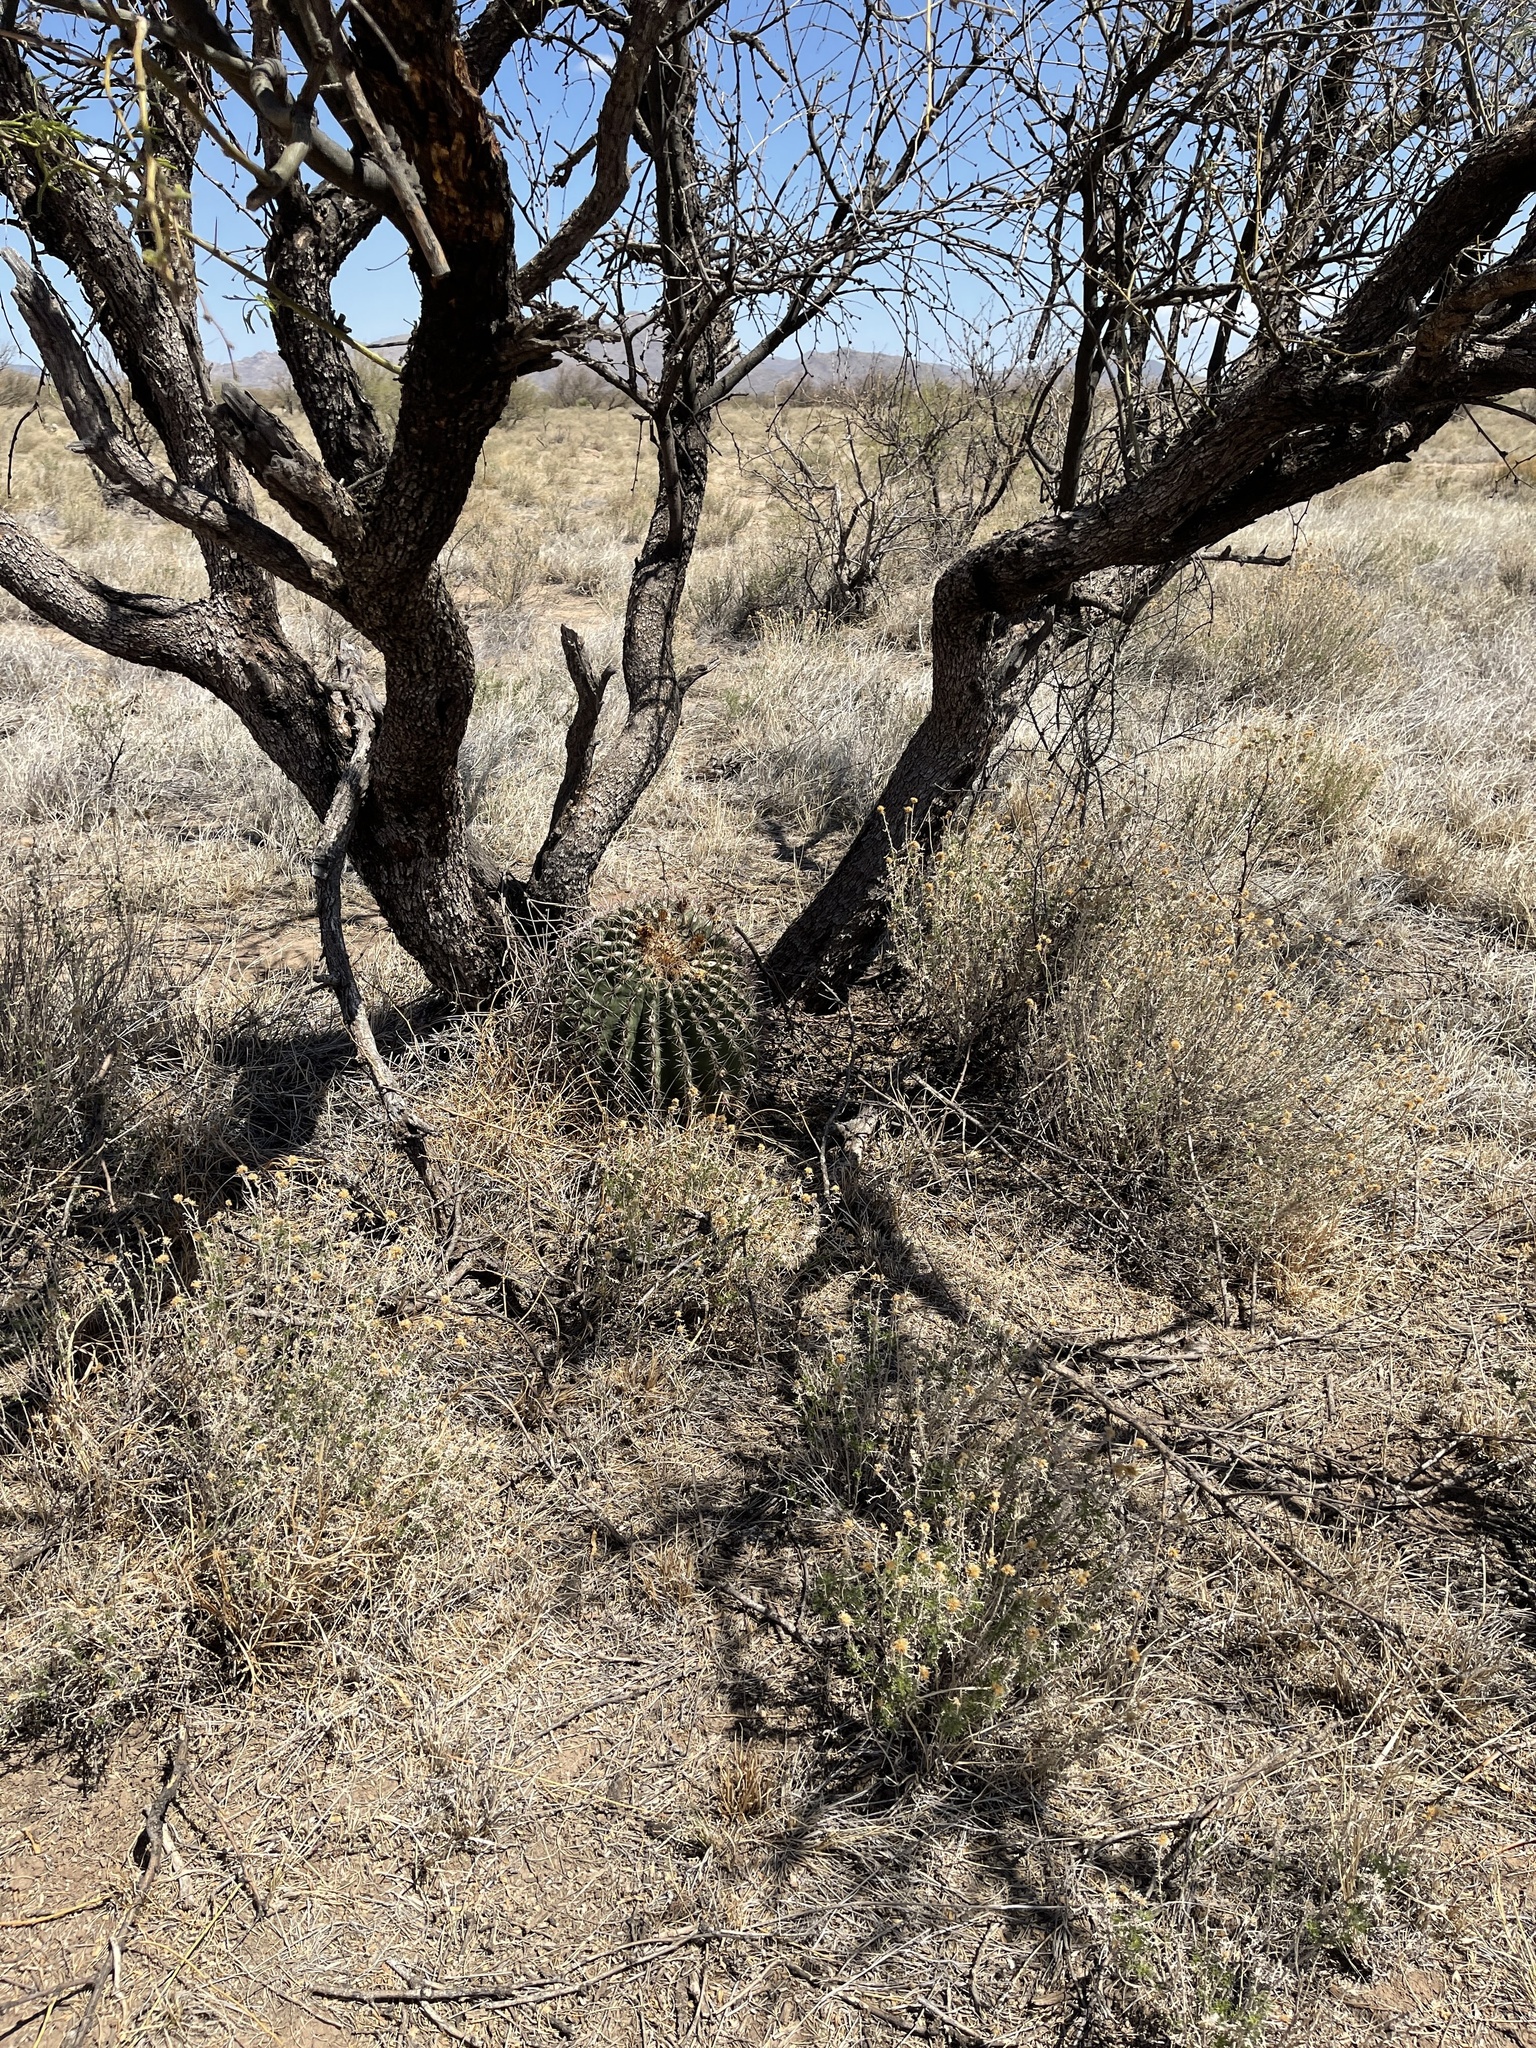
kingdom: Plantae
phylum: Tracheophyta
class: Magnoliopsida
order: Caryophyllales
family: Cactaceae
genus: Ferocactus
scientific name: Ferocactus wislizeni
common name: Candy barrel cactus
